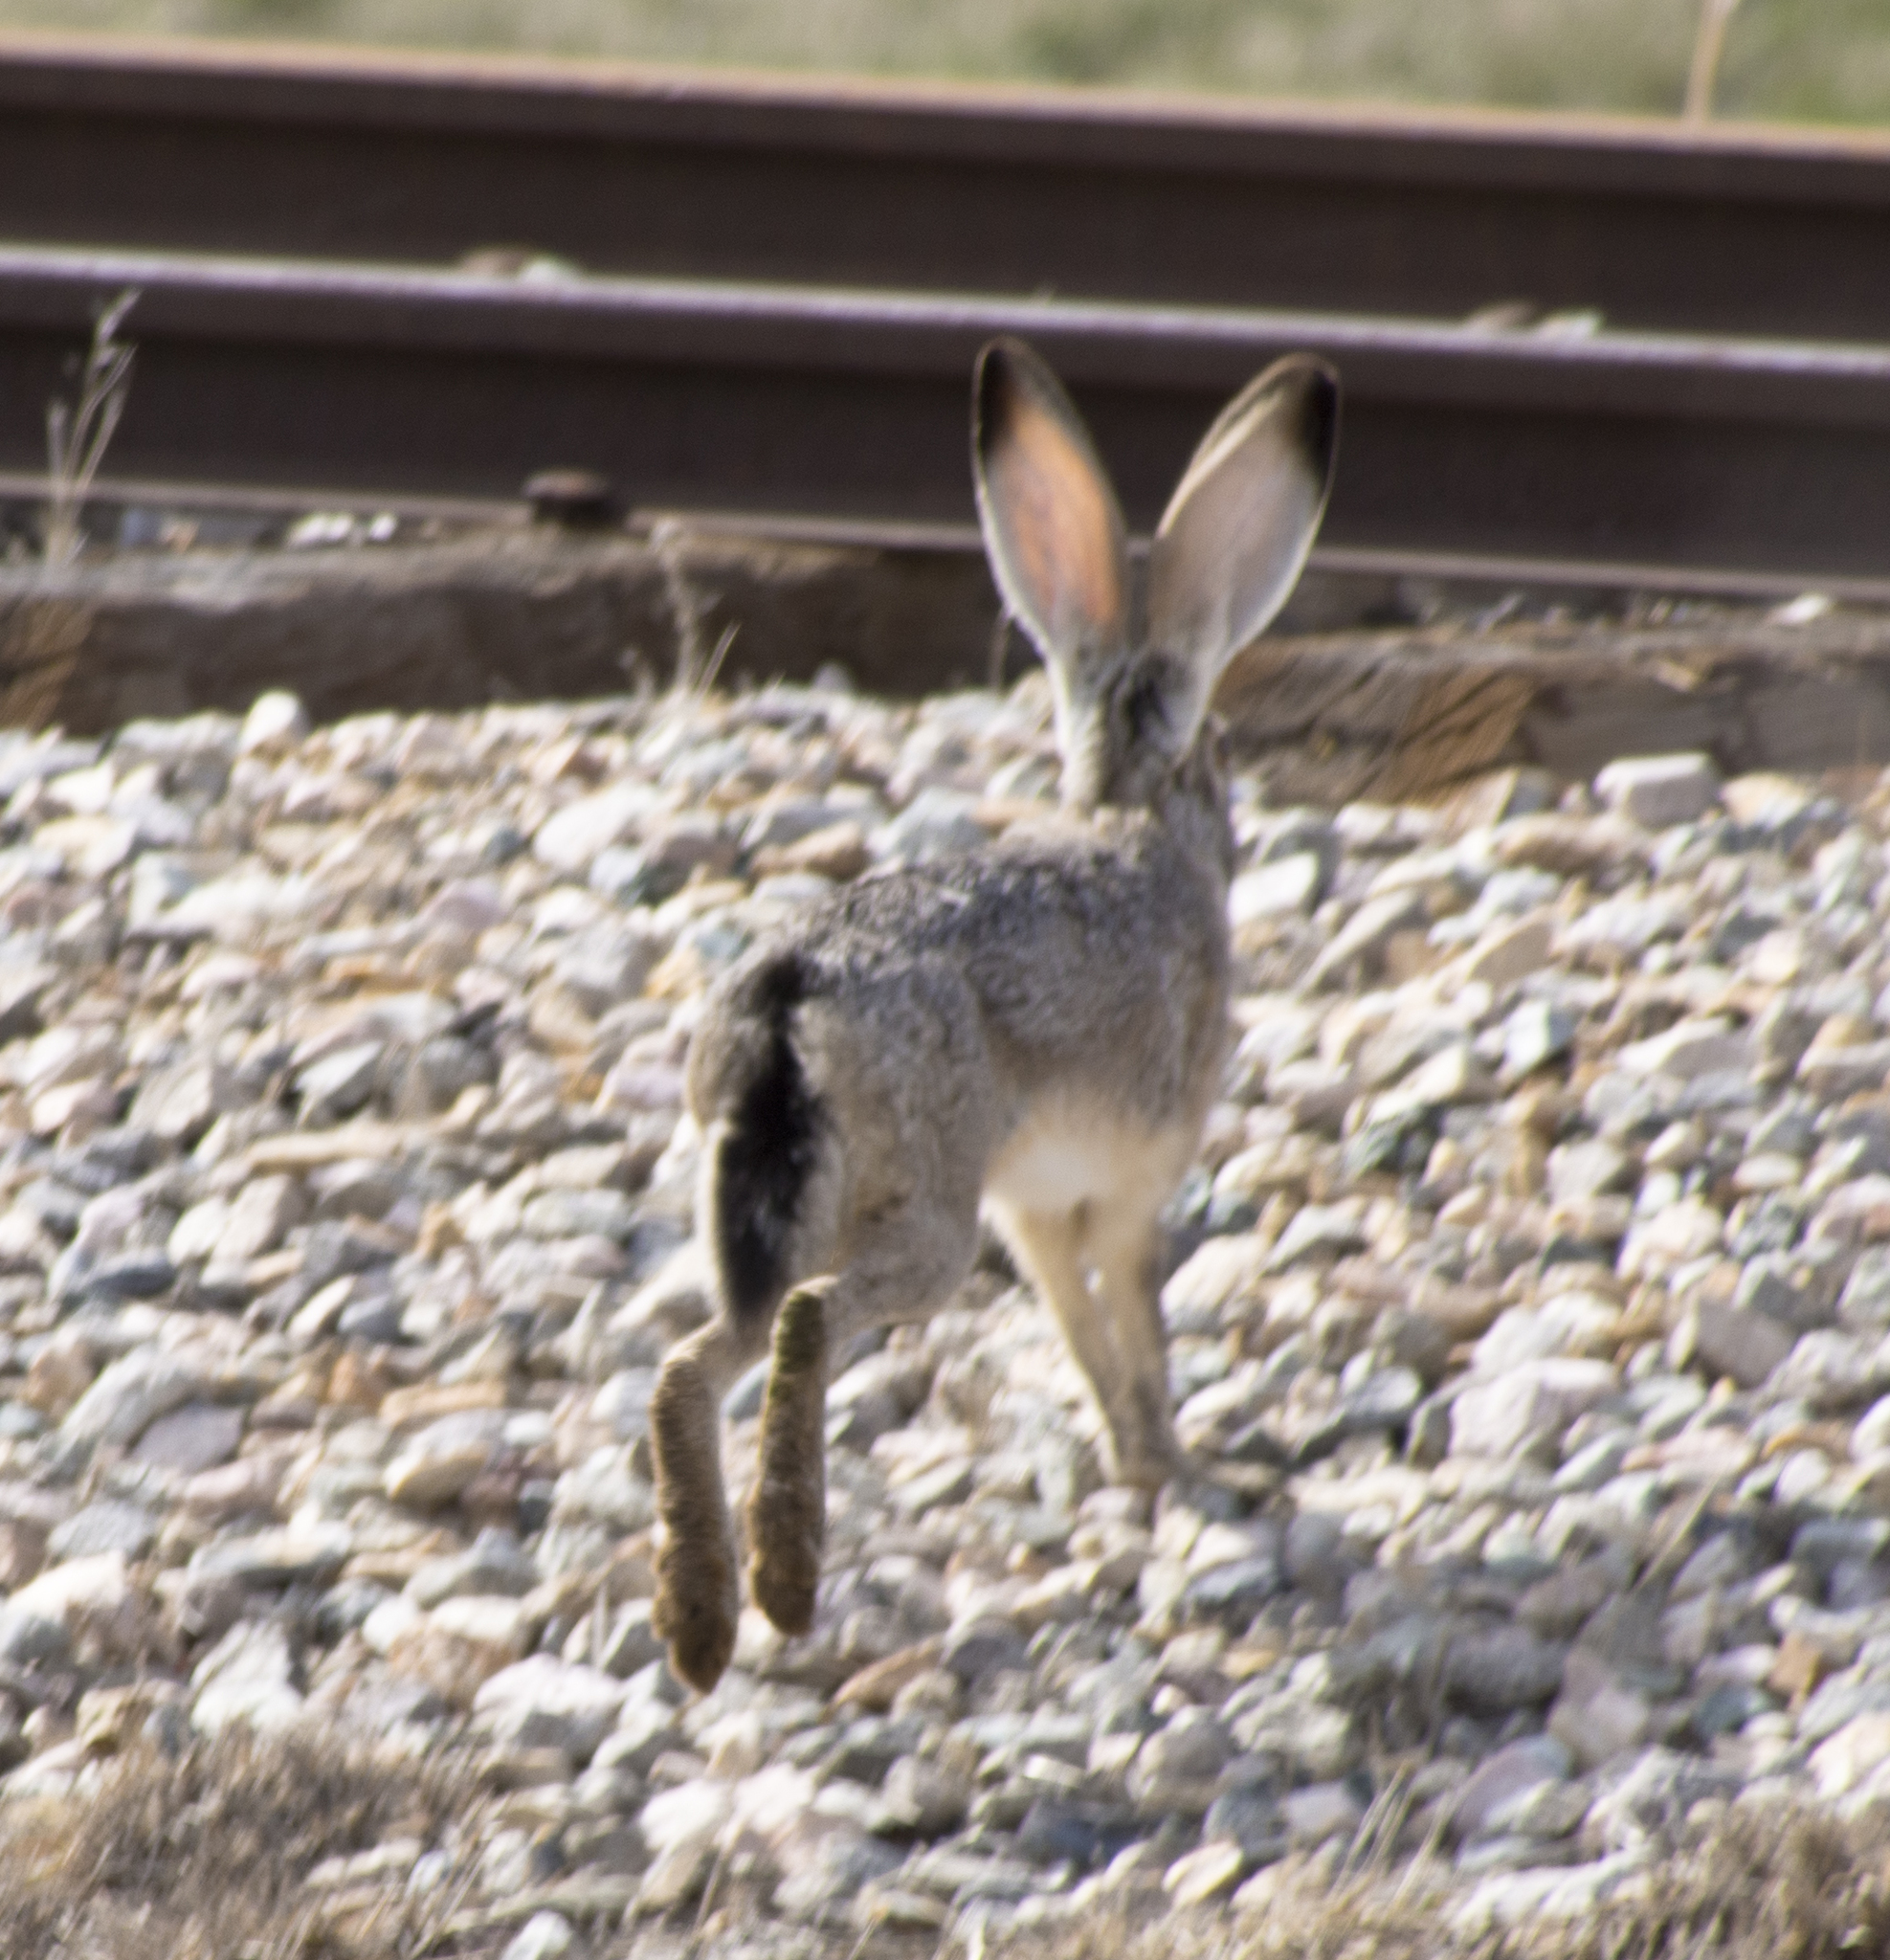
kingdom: Animalia
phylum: Chordata
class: Mammalia
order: Lagomorpha
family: Leporidae
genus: Lepus
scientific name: Lepus californicus
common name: Black-tailed jackrabbit
